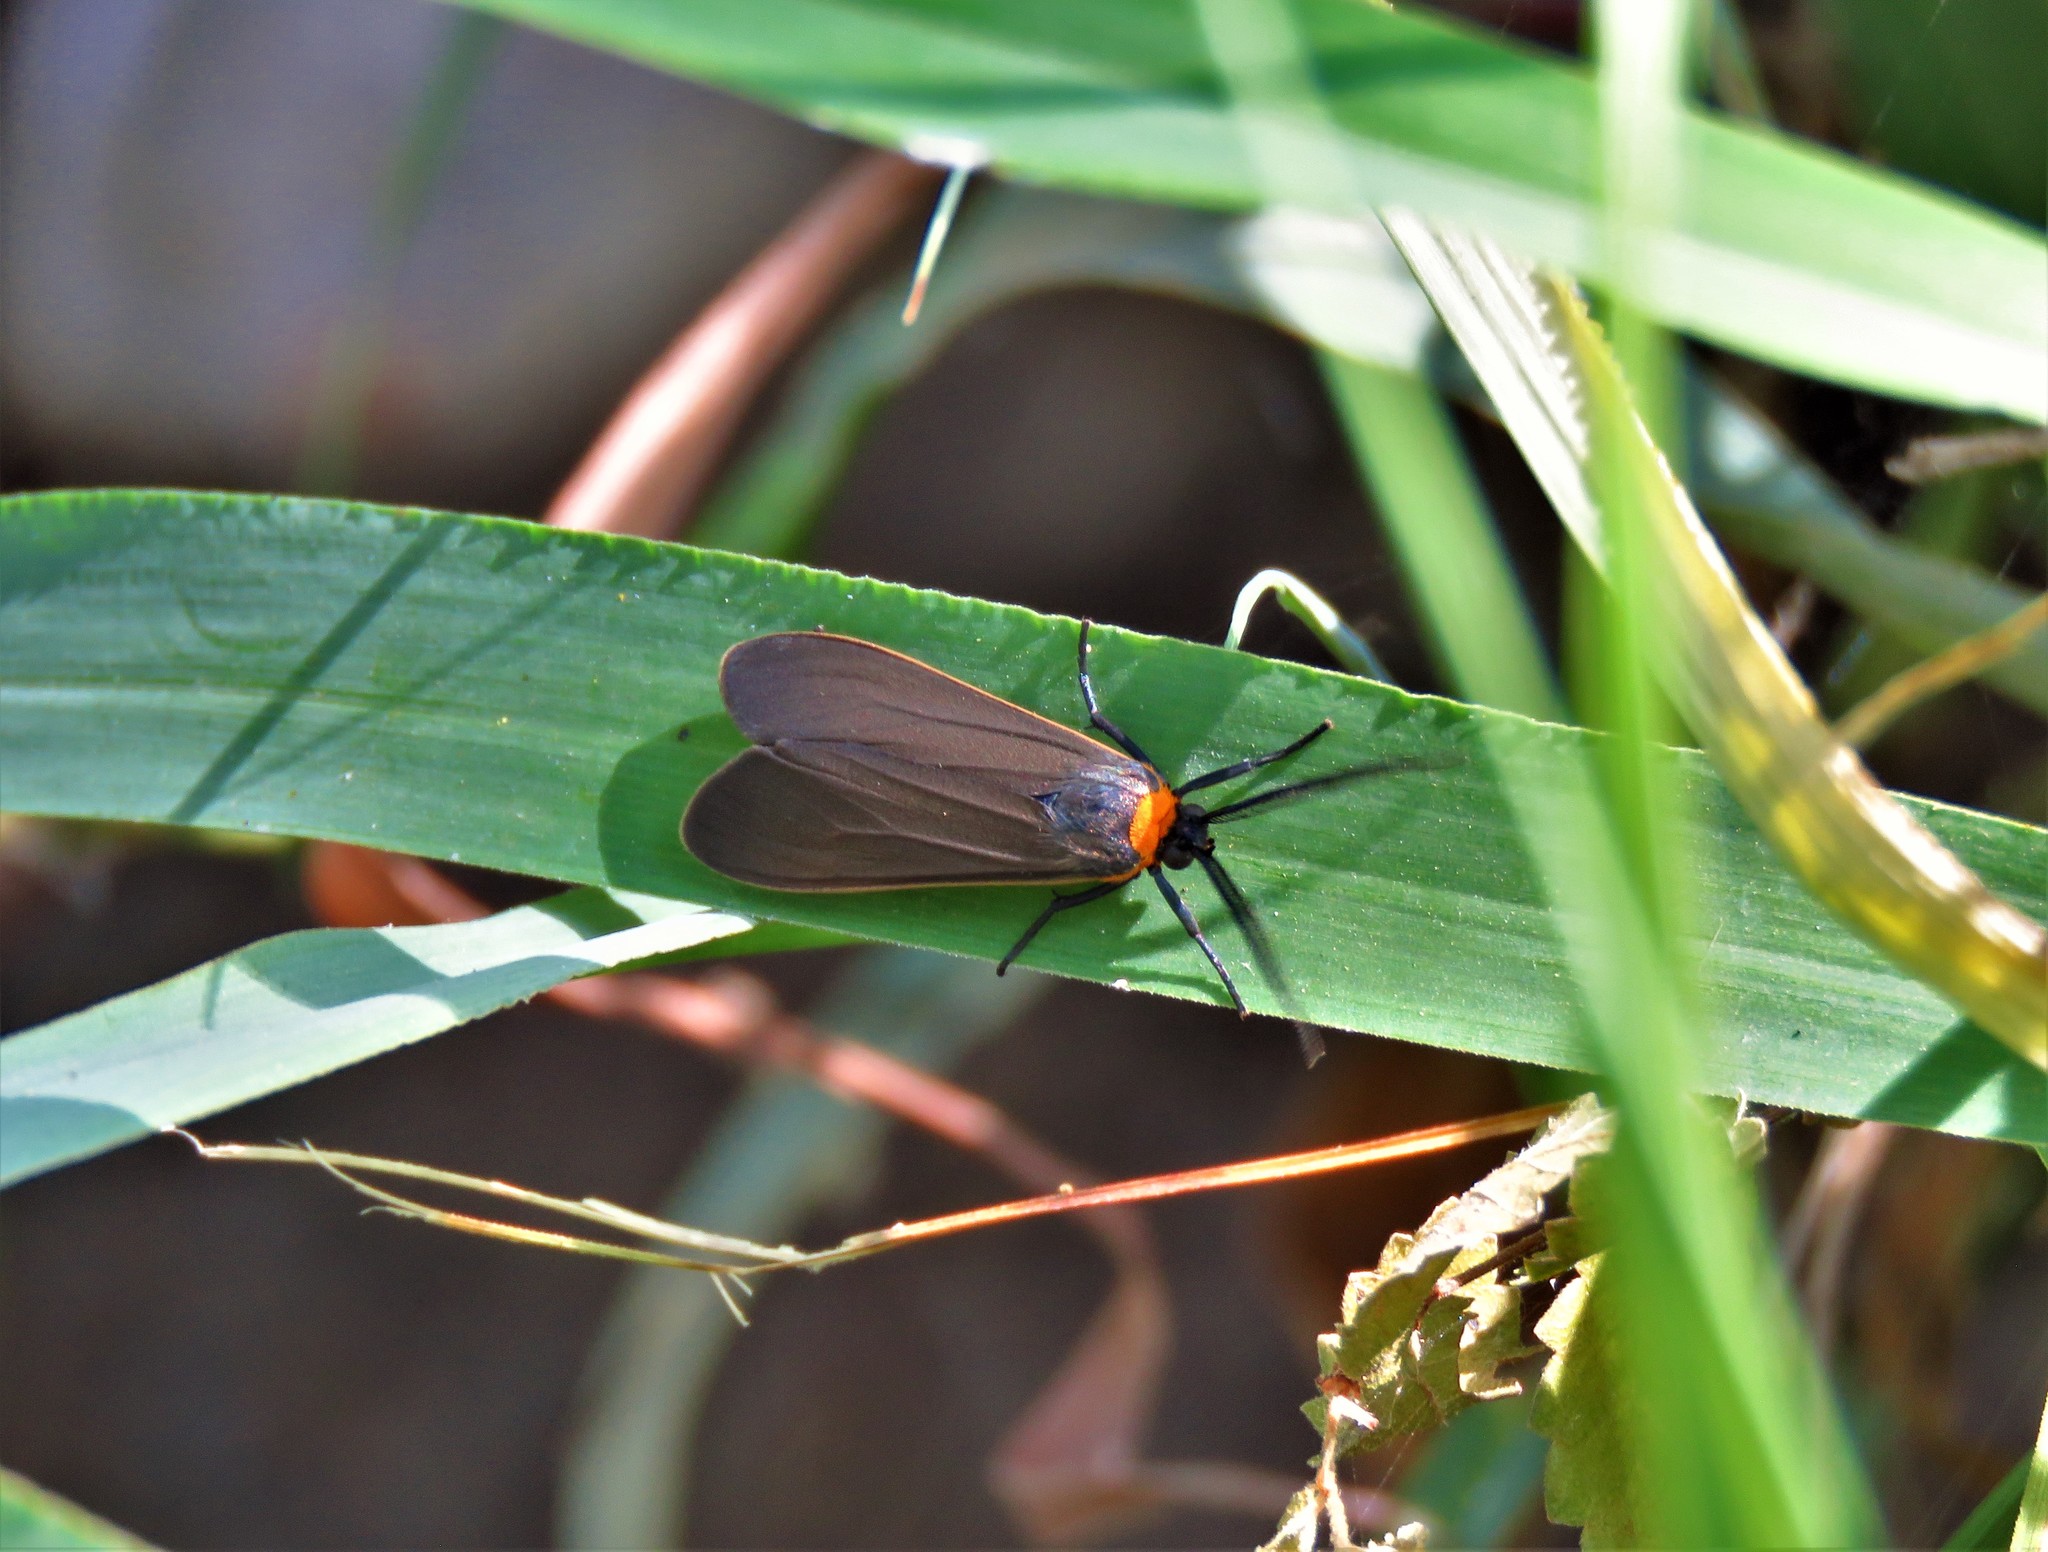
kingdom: Animalia
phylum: Arthropoda
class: Insecta
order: Lepidoptera
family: Erebidae
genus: Cisseps
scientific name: Cisseps fulvicollis
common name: Yellow-collared scape moth
